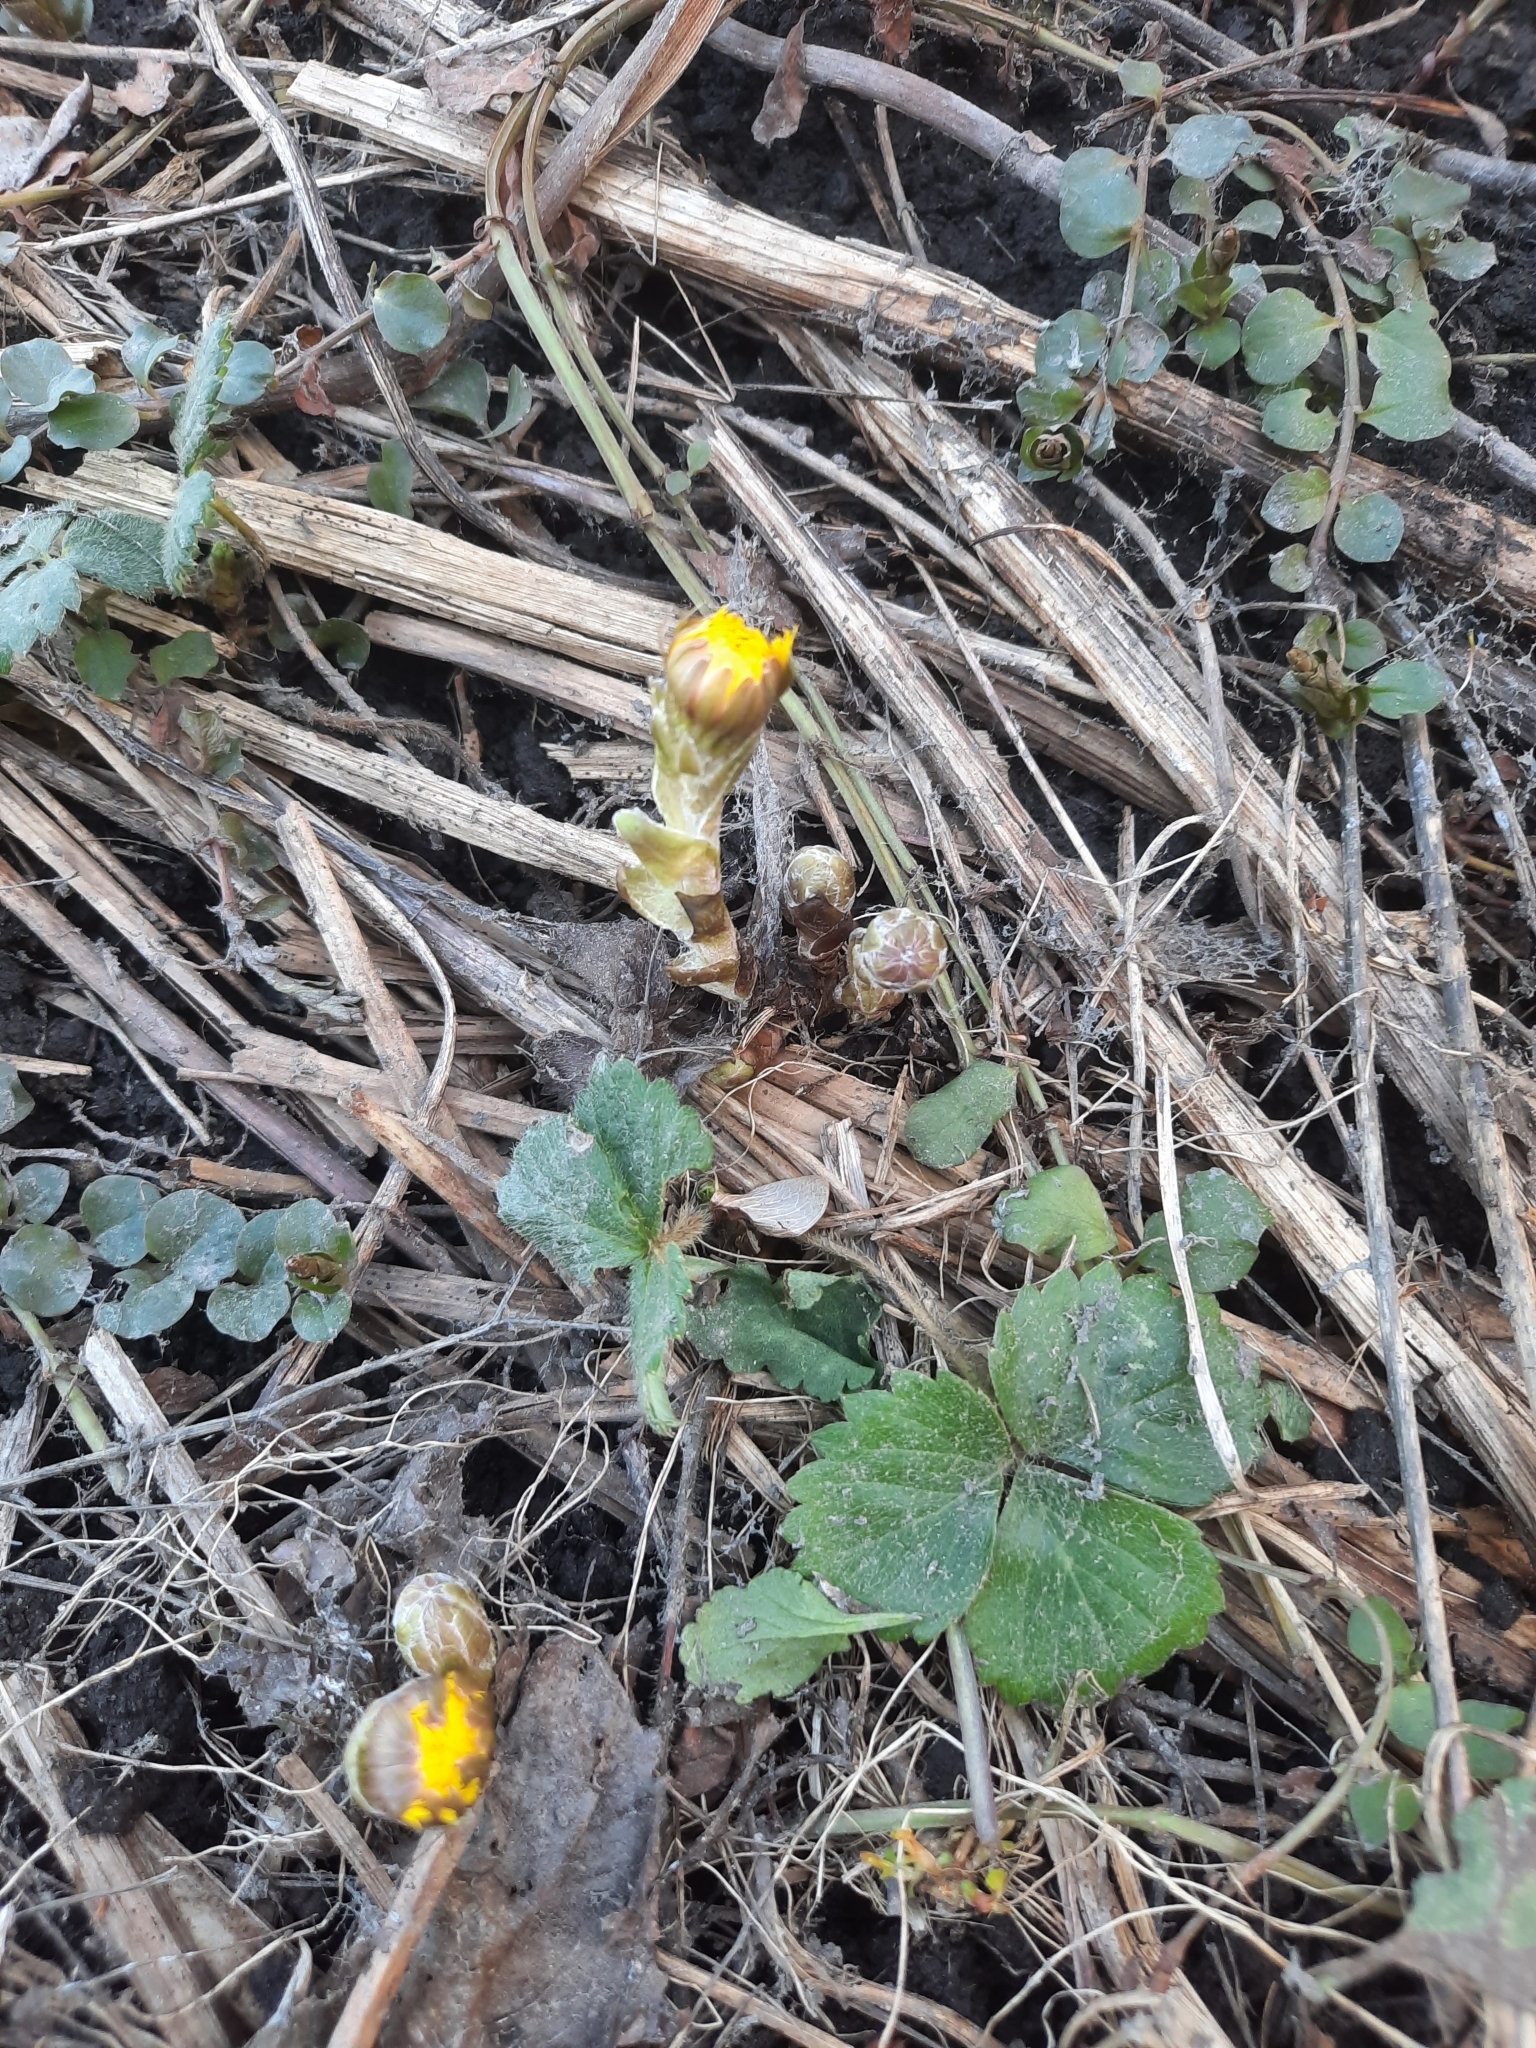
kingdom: Plantae
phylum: Tracheophyta
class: Magnoliopsida
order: Asterales
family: Asteraceae
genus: Tussilago
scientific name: Tussilago farfara
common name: Coltsfoot
